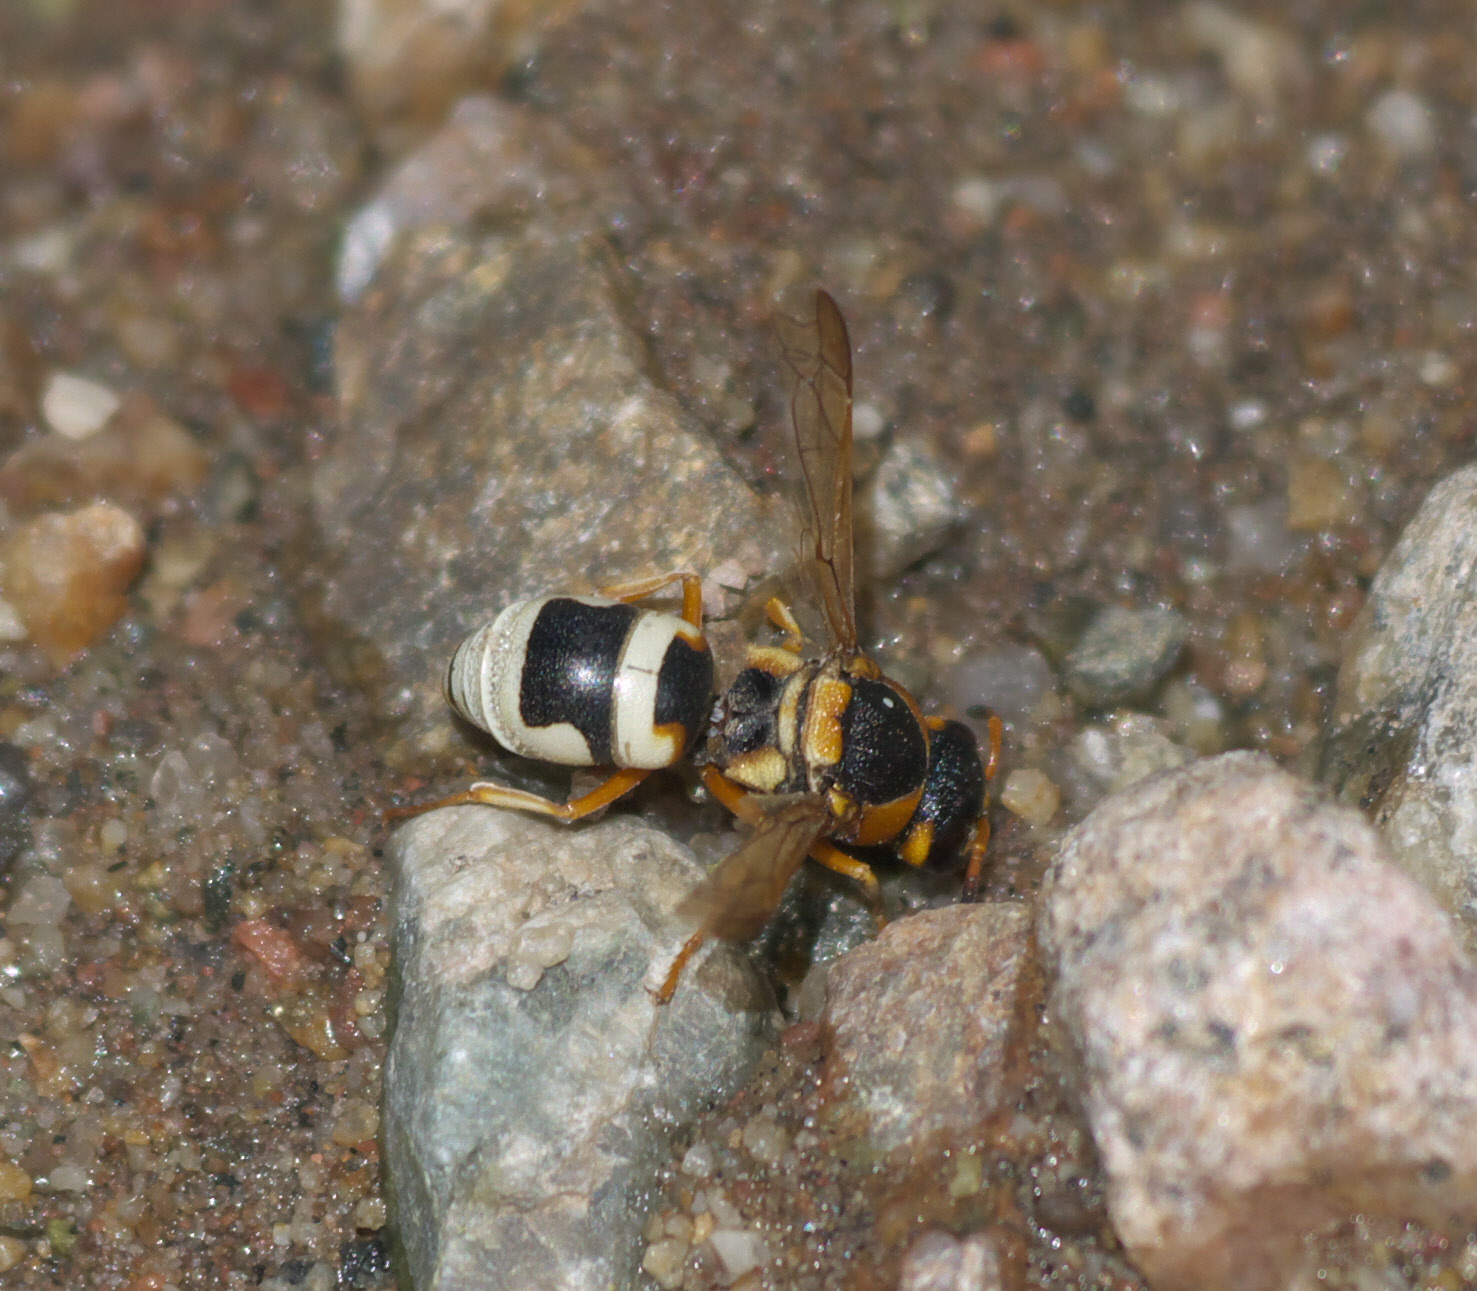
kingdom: Animalia
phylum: Arthropoda
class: Insecta
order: Hymenoptera
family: Eumenidae
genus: Euodynerus
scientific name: Euodynerus auranus
